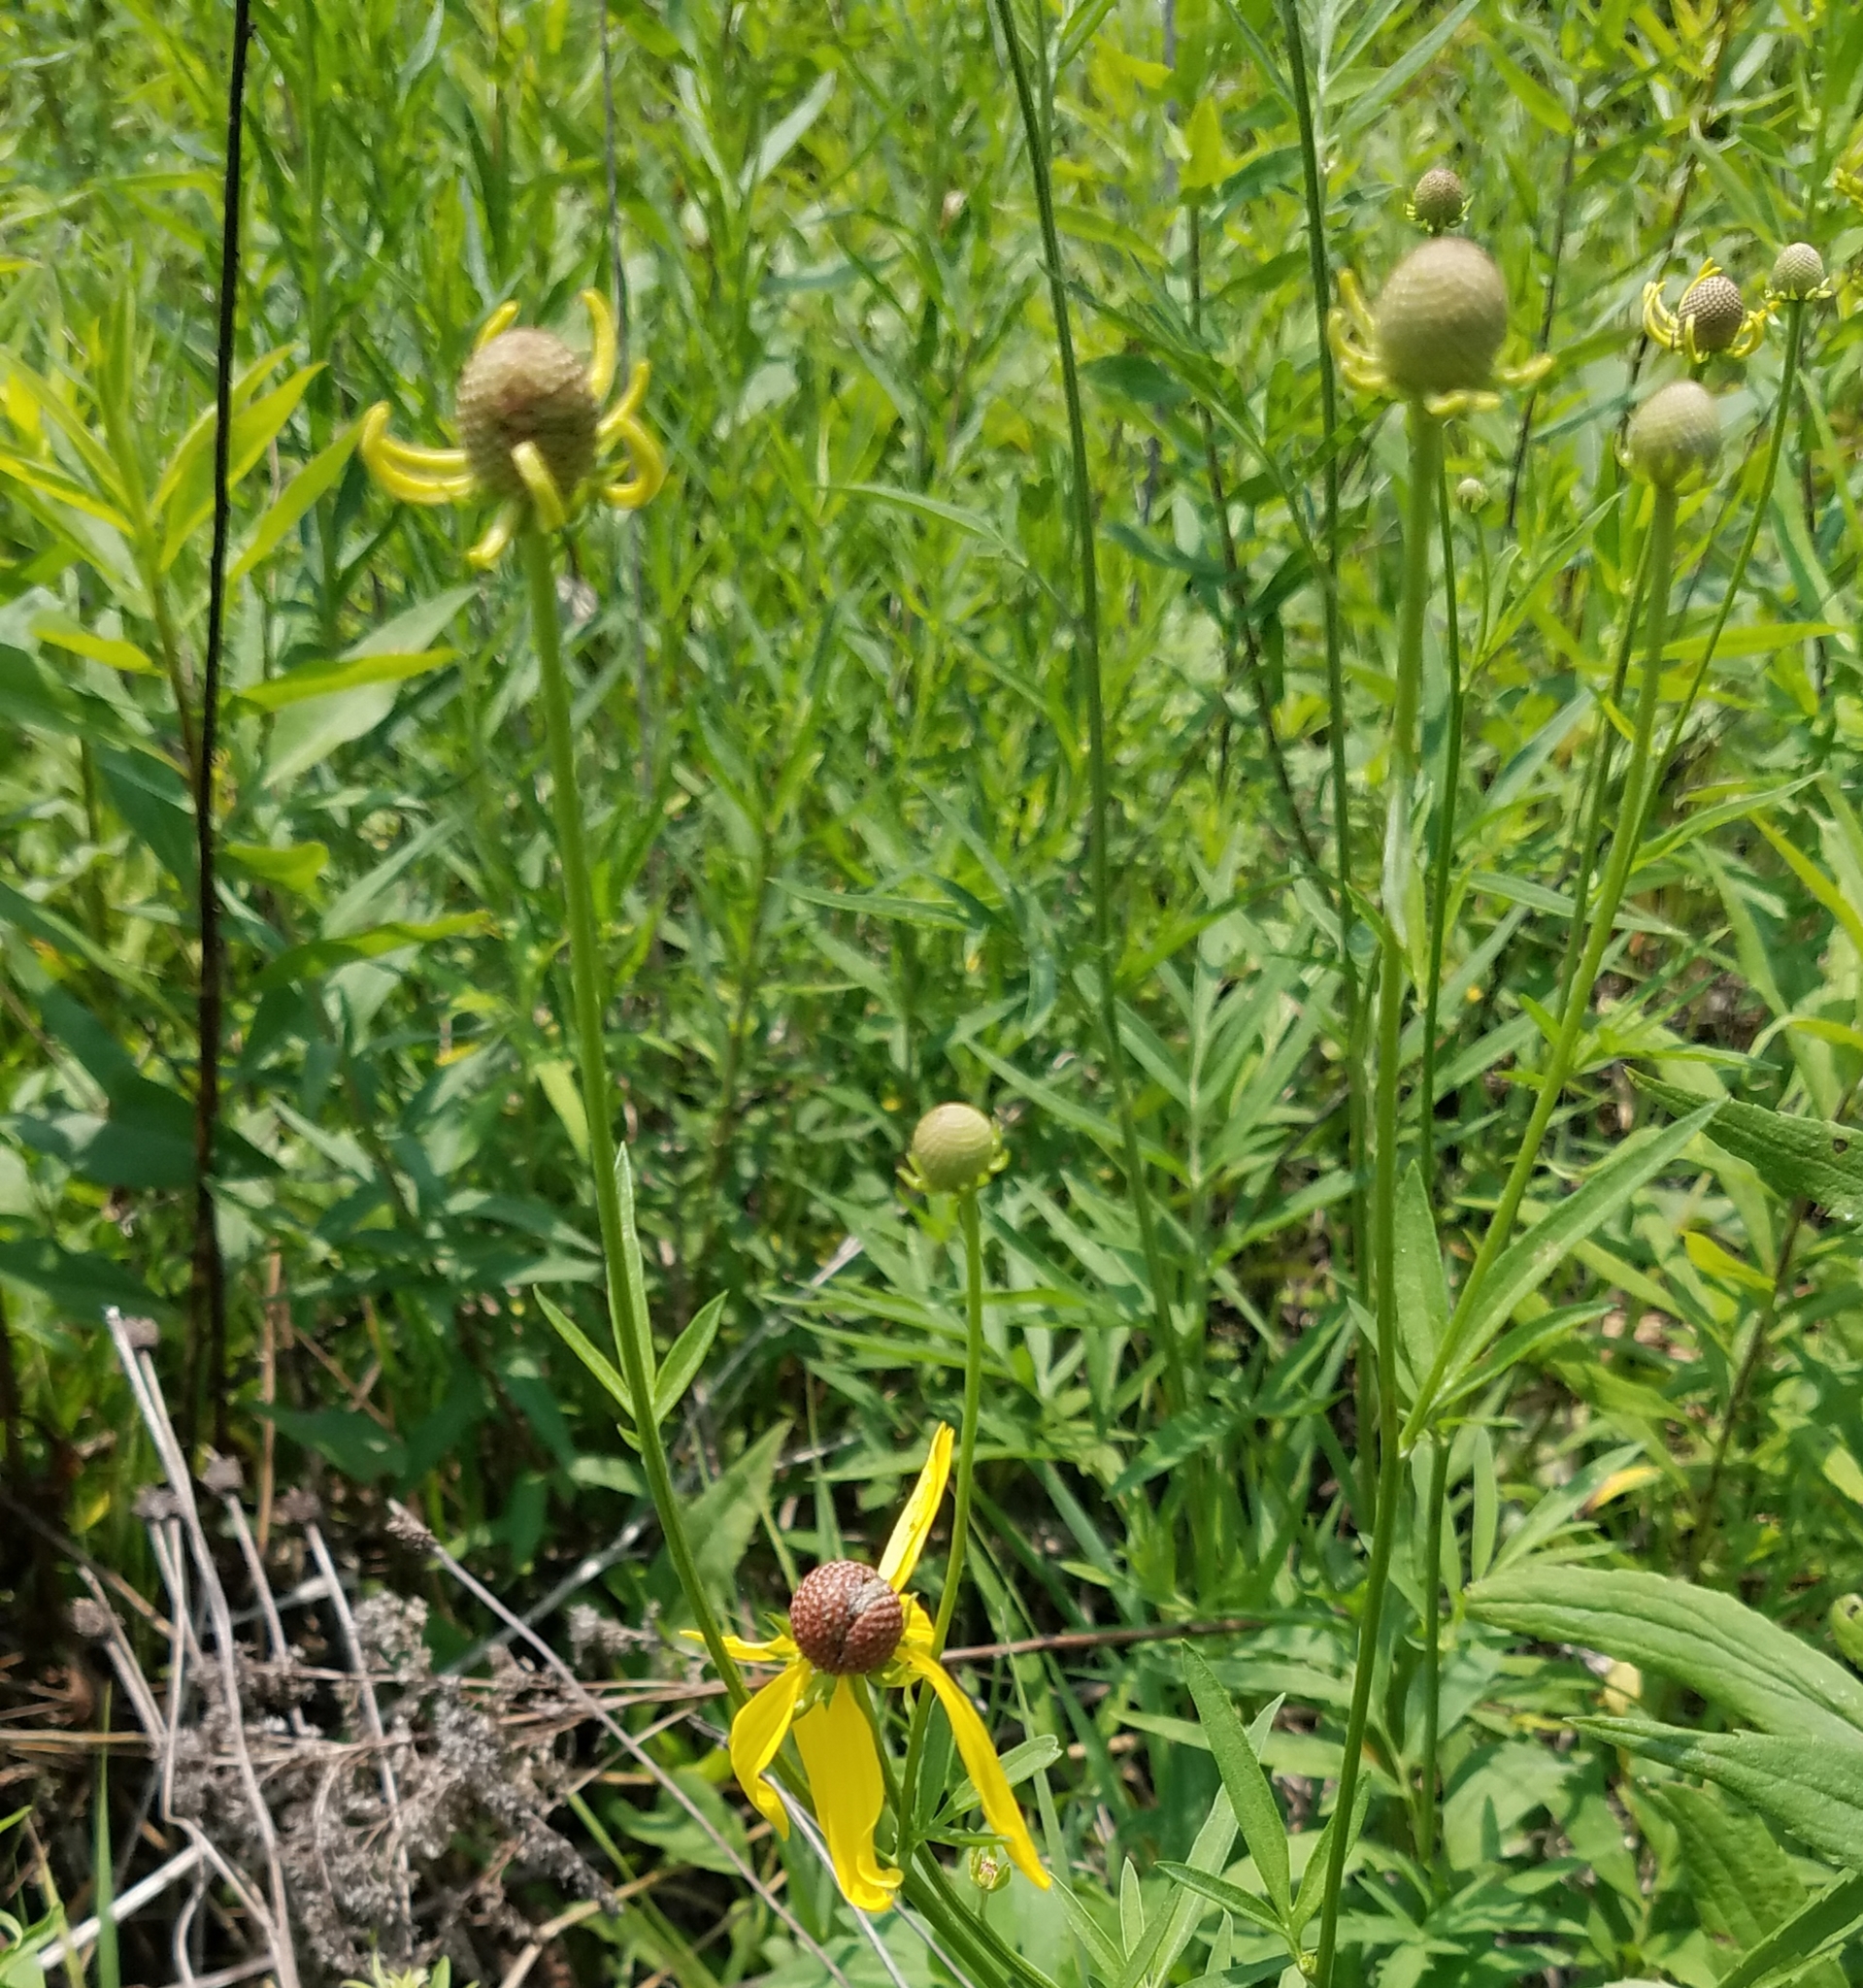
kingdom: Plantae
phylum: Tracheophyta
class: Magnoliopsida
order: Asterales
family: Asteraceae
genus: Ratibida
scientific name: Ratibida pinnata
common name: Drooping prairie-coneflower
